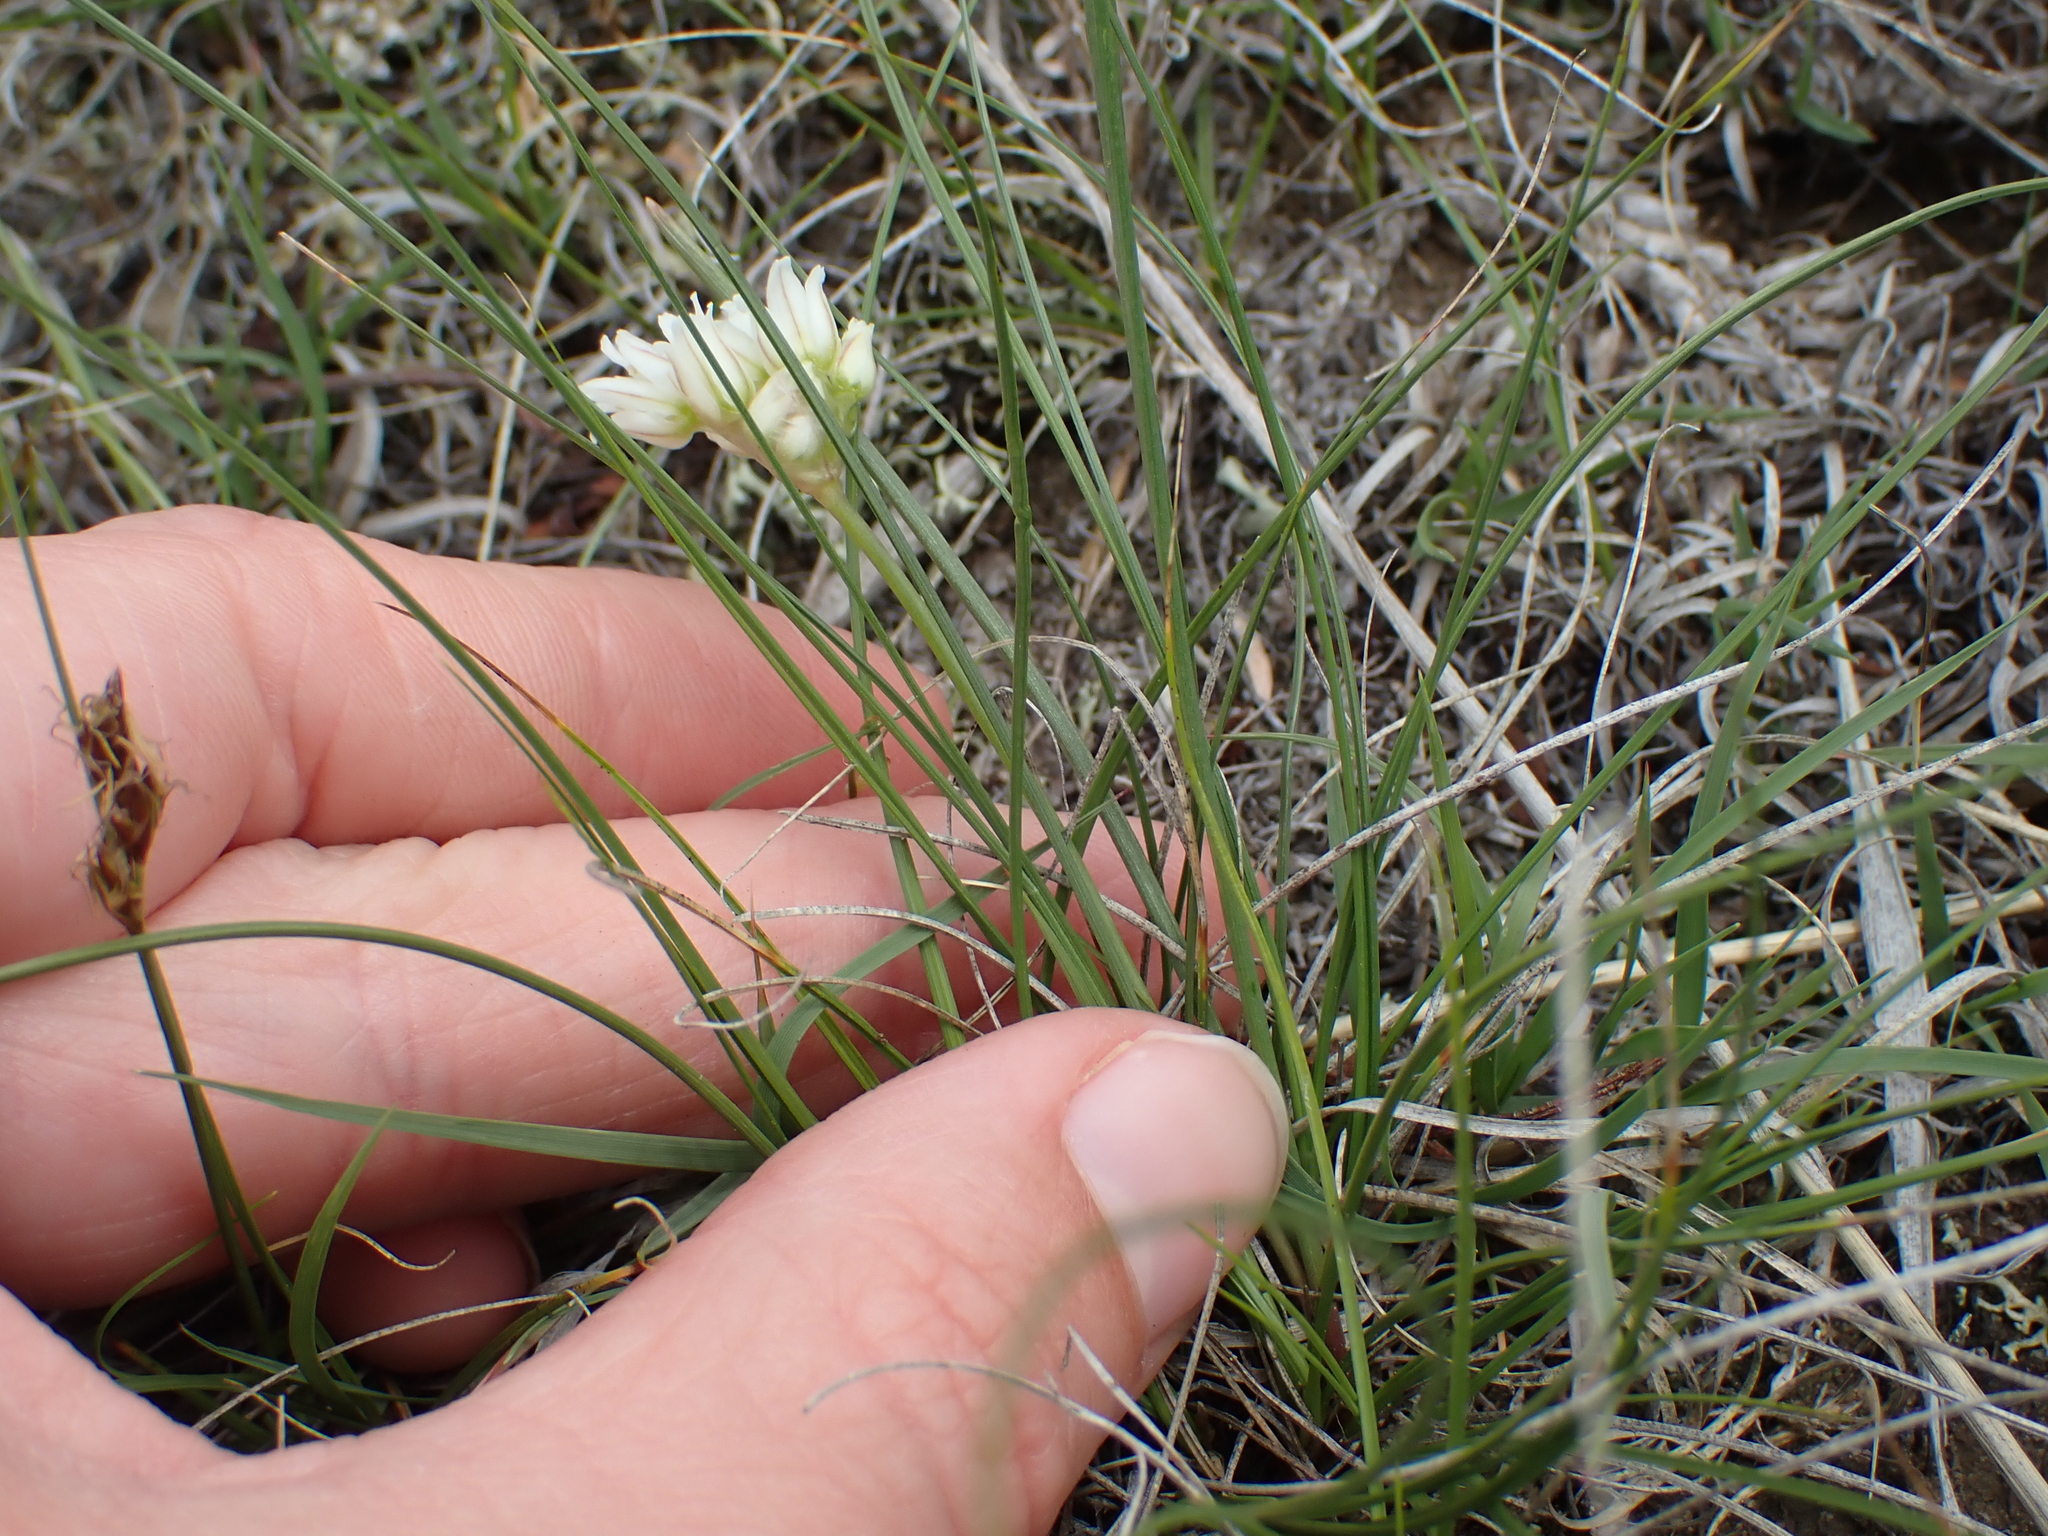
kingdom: Plantae
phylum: Tracheophyta
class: Liliopsida
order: Asparagales
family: Amaryllidaceae
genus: Allium
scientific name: Allium textile
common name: Prairie onion
